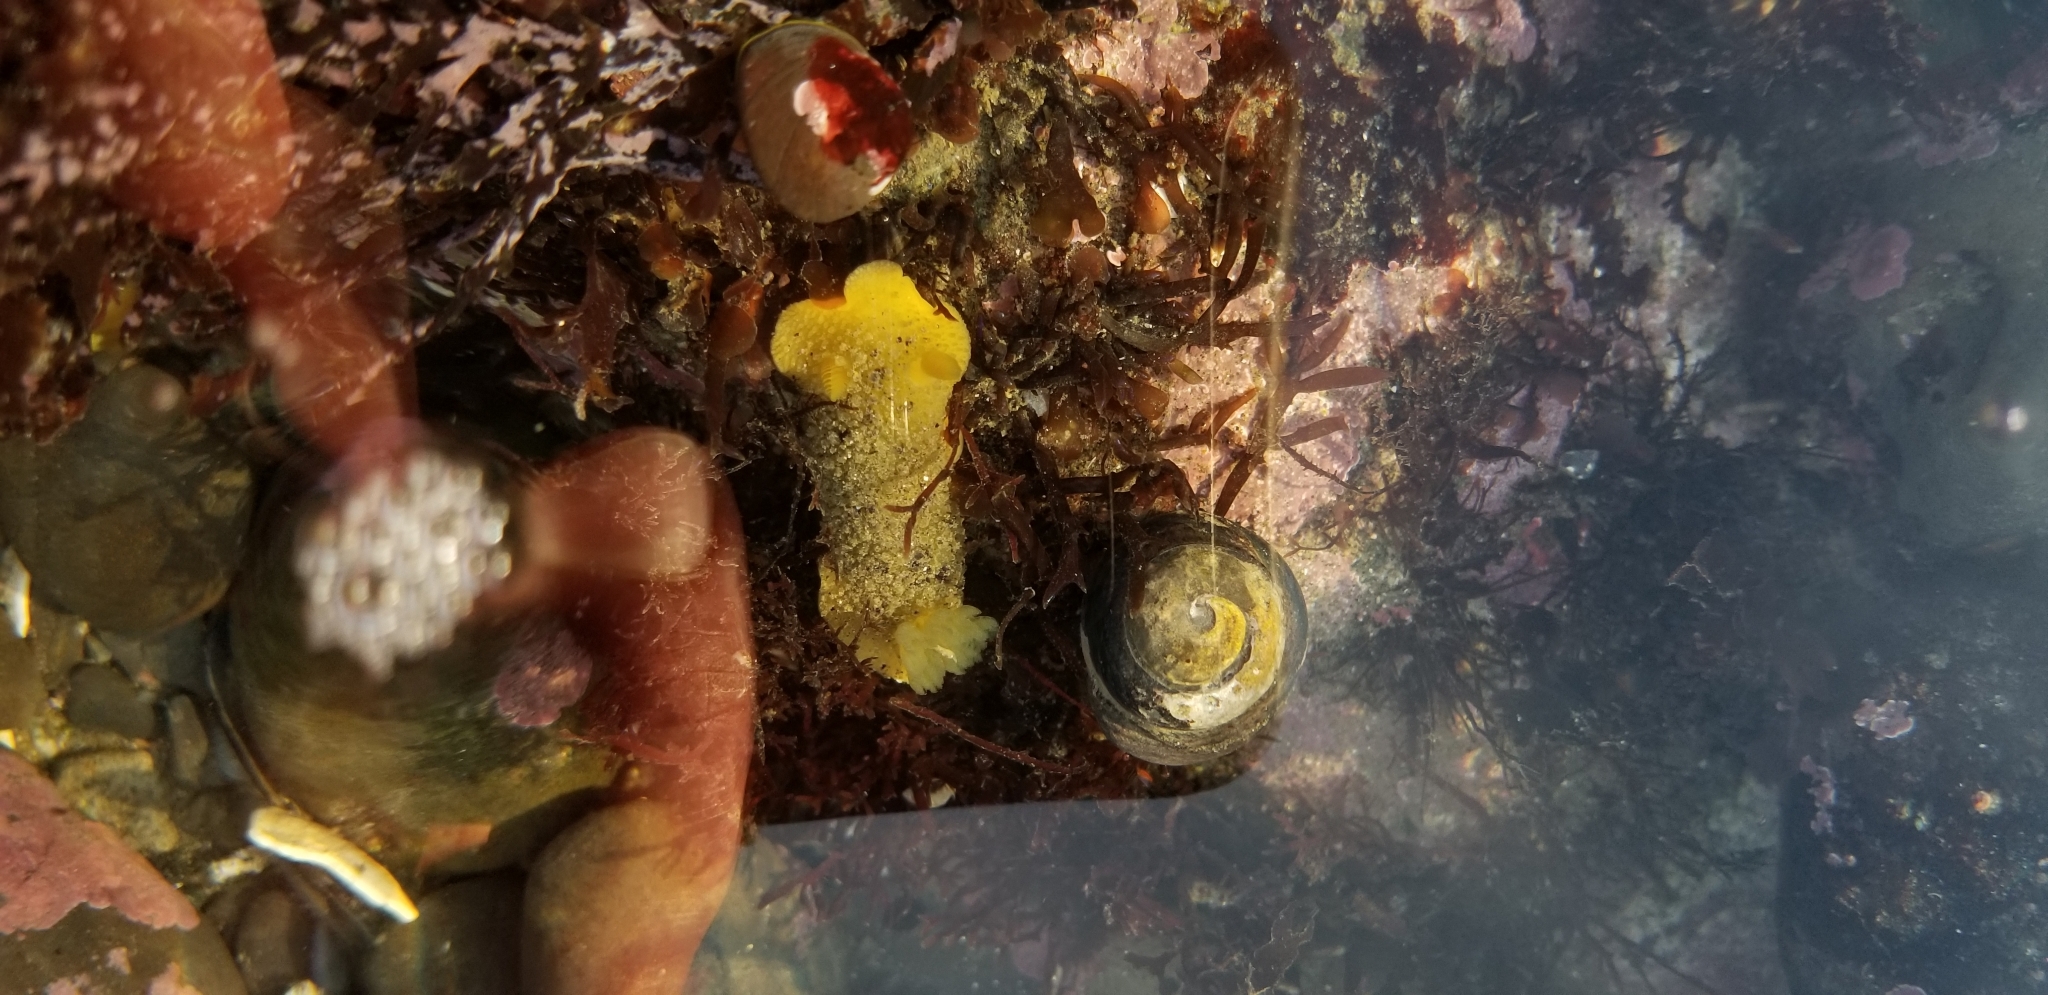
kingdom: Animalia
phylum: Mollusca
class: Gastropoda
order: Nudibranchia
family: Dorididae
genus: Doris
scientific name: Doris montereyensis
